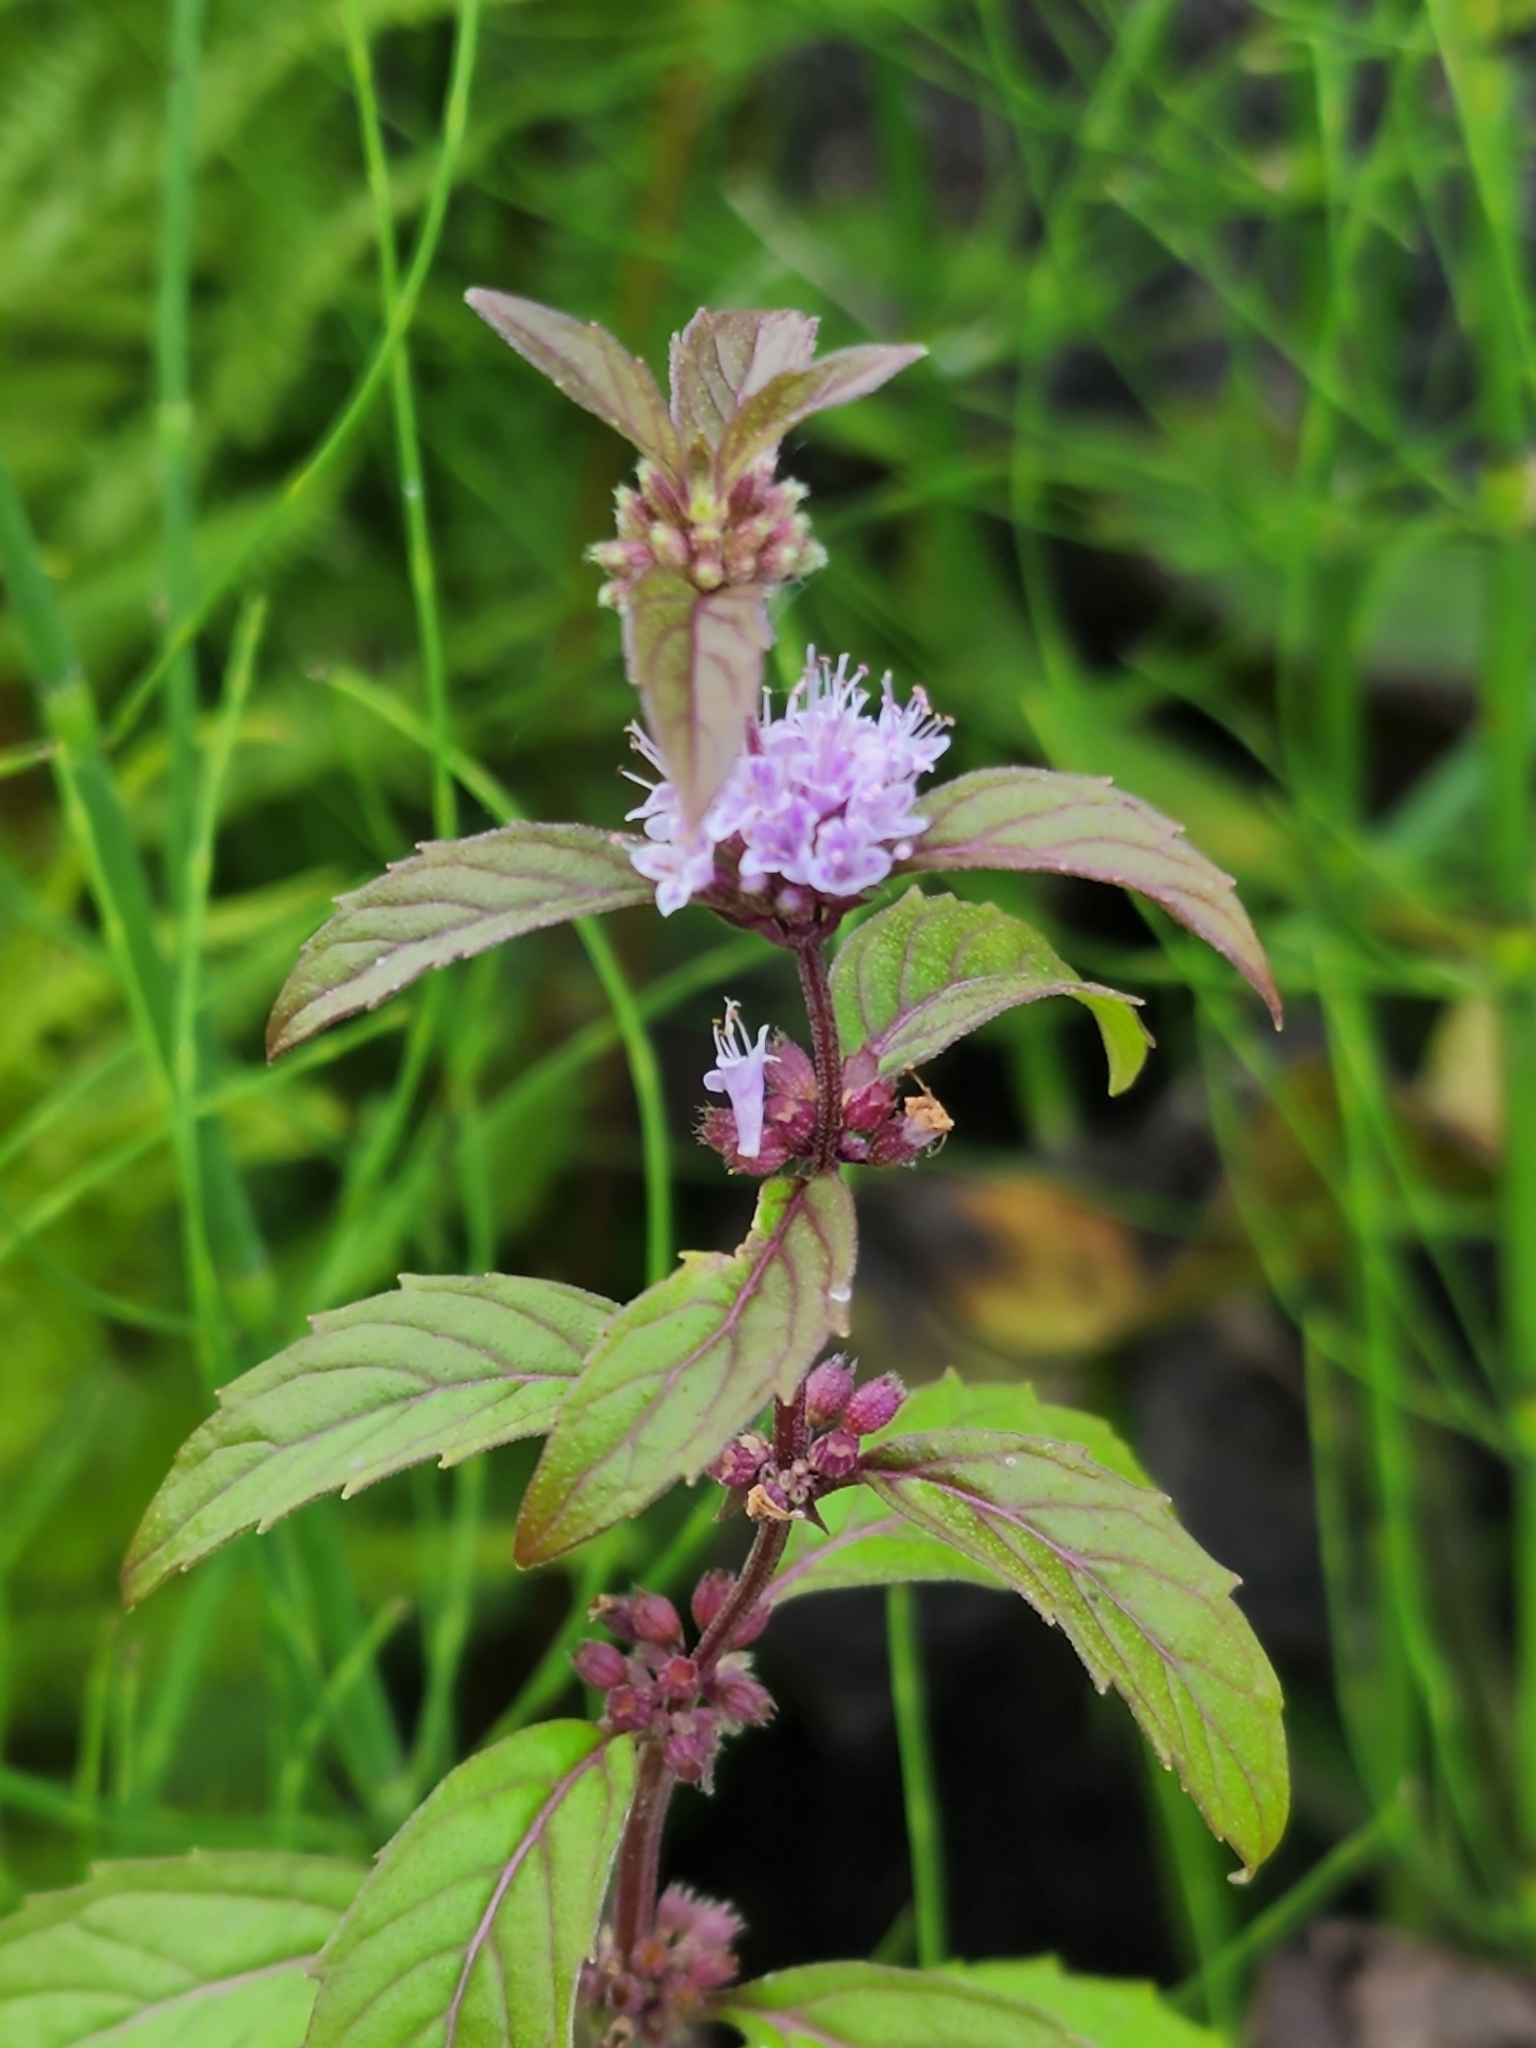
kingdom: Plantae
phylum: Tracheophyta
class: Magnoliopsida
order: Lamiales
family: Lamiaceae
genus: Mentha
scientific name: Mentha canadensis
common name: American corn mint
